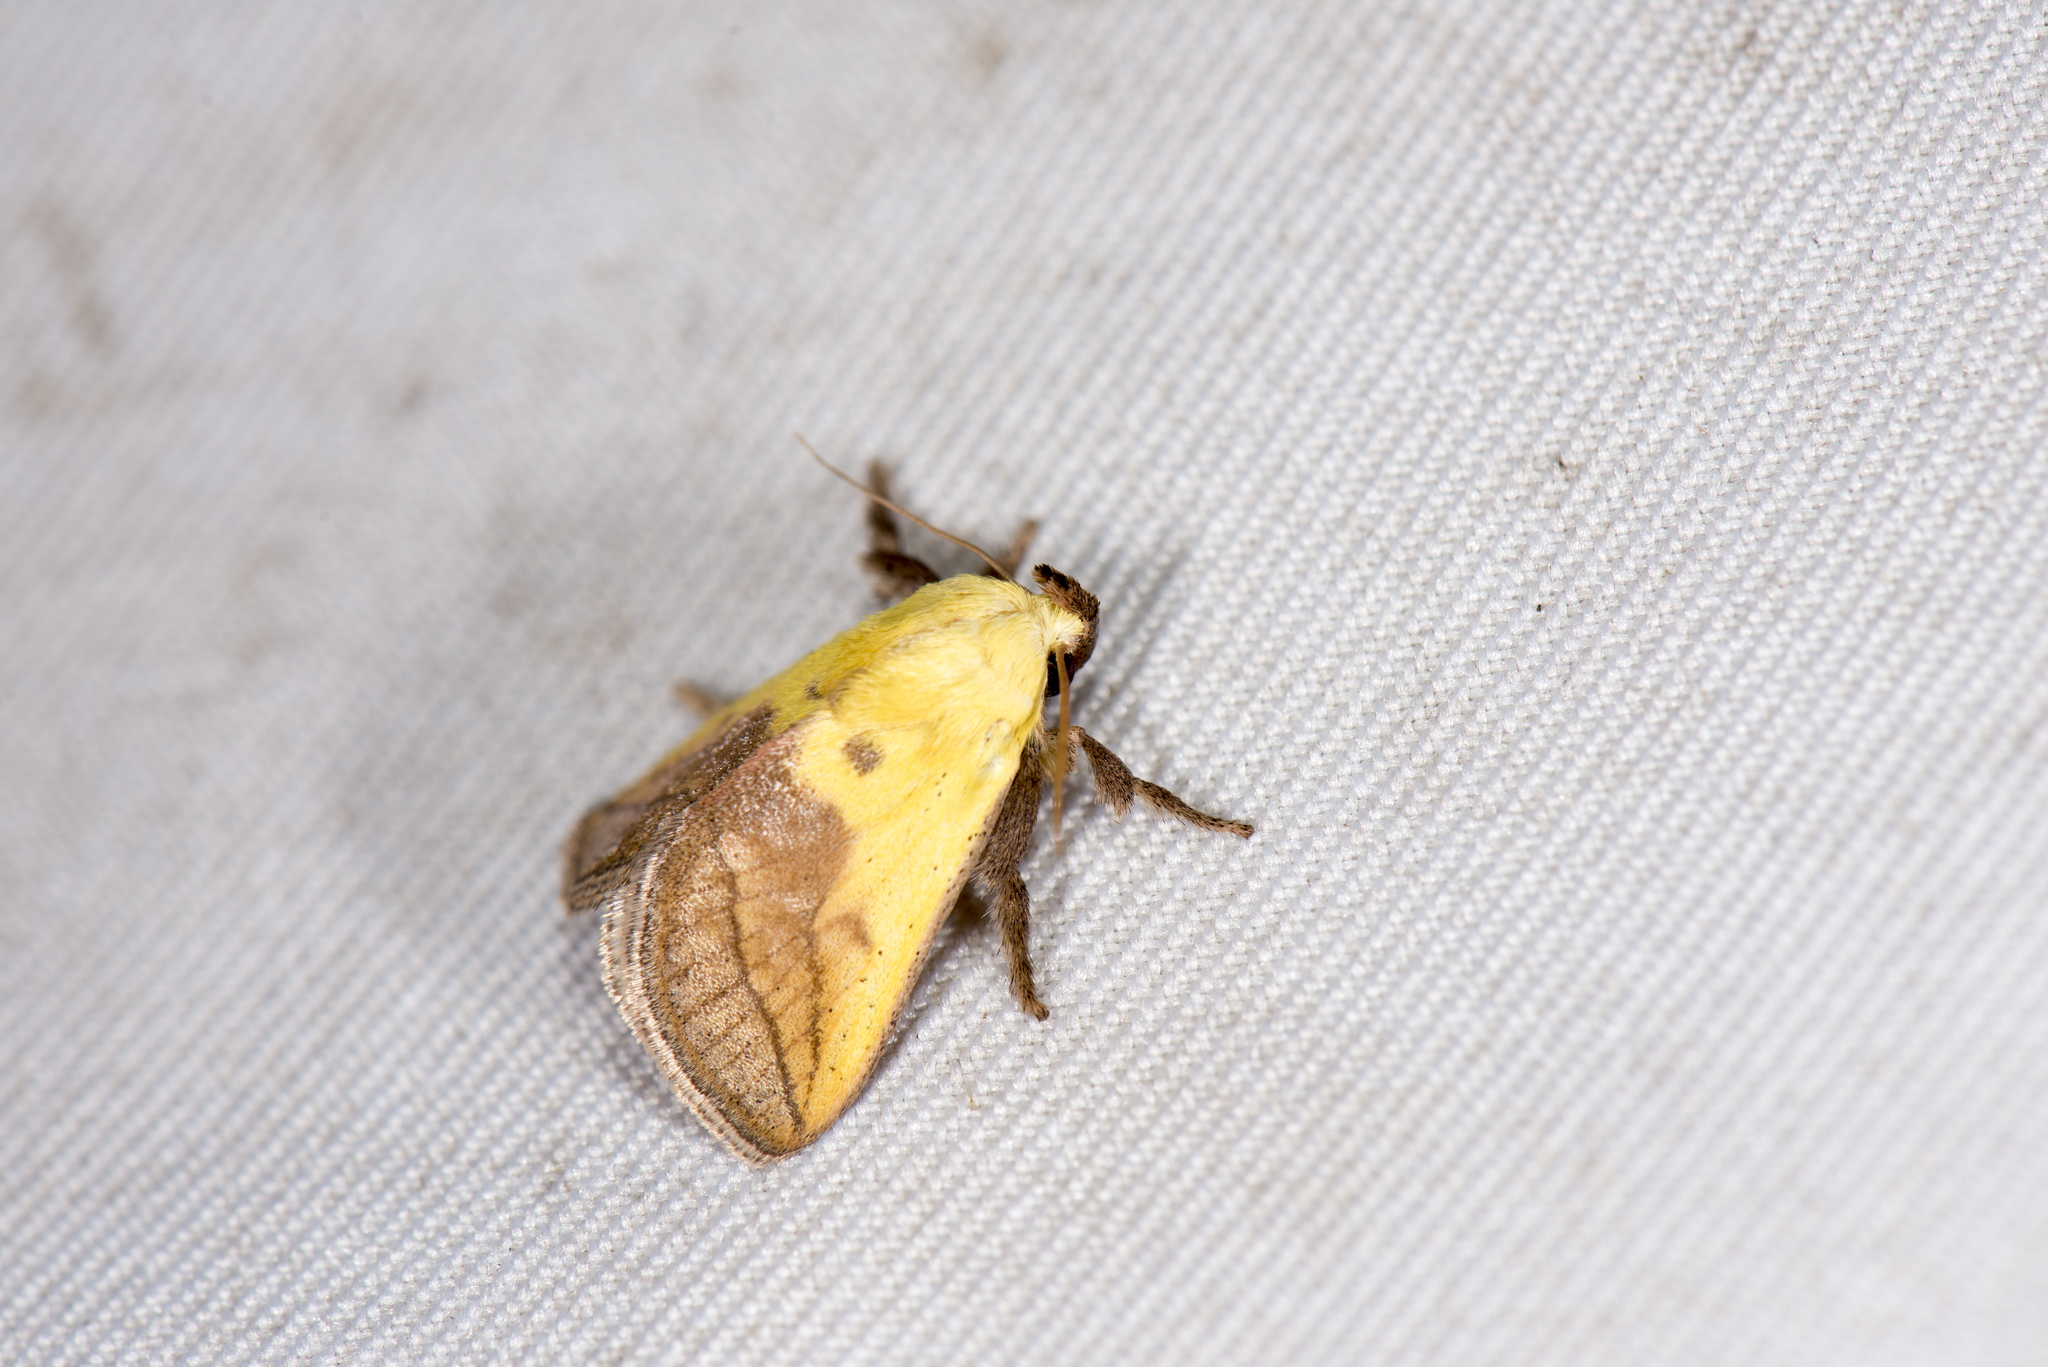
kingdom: Animalia
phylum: Arthropoda
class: Insecta
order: Lepidoptera
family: Limacodidae
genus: Monema
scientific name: Monema flavescens
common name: Oriental moth
